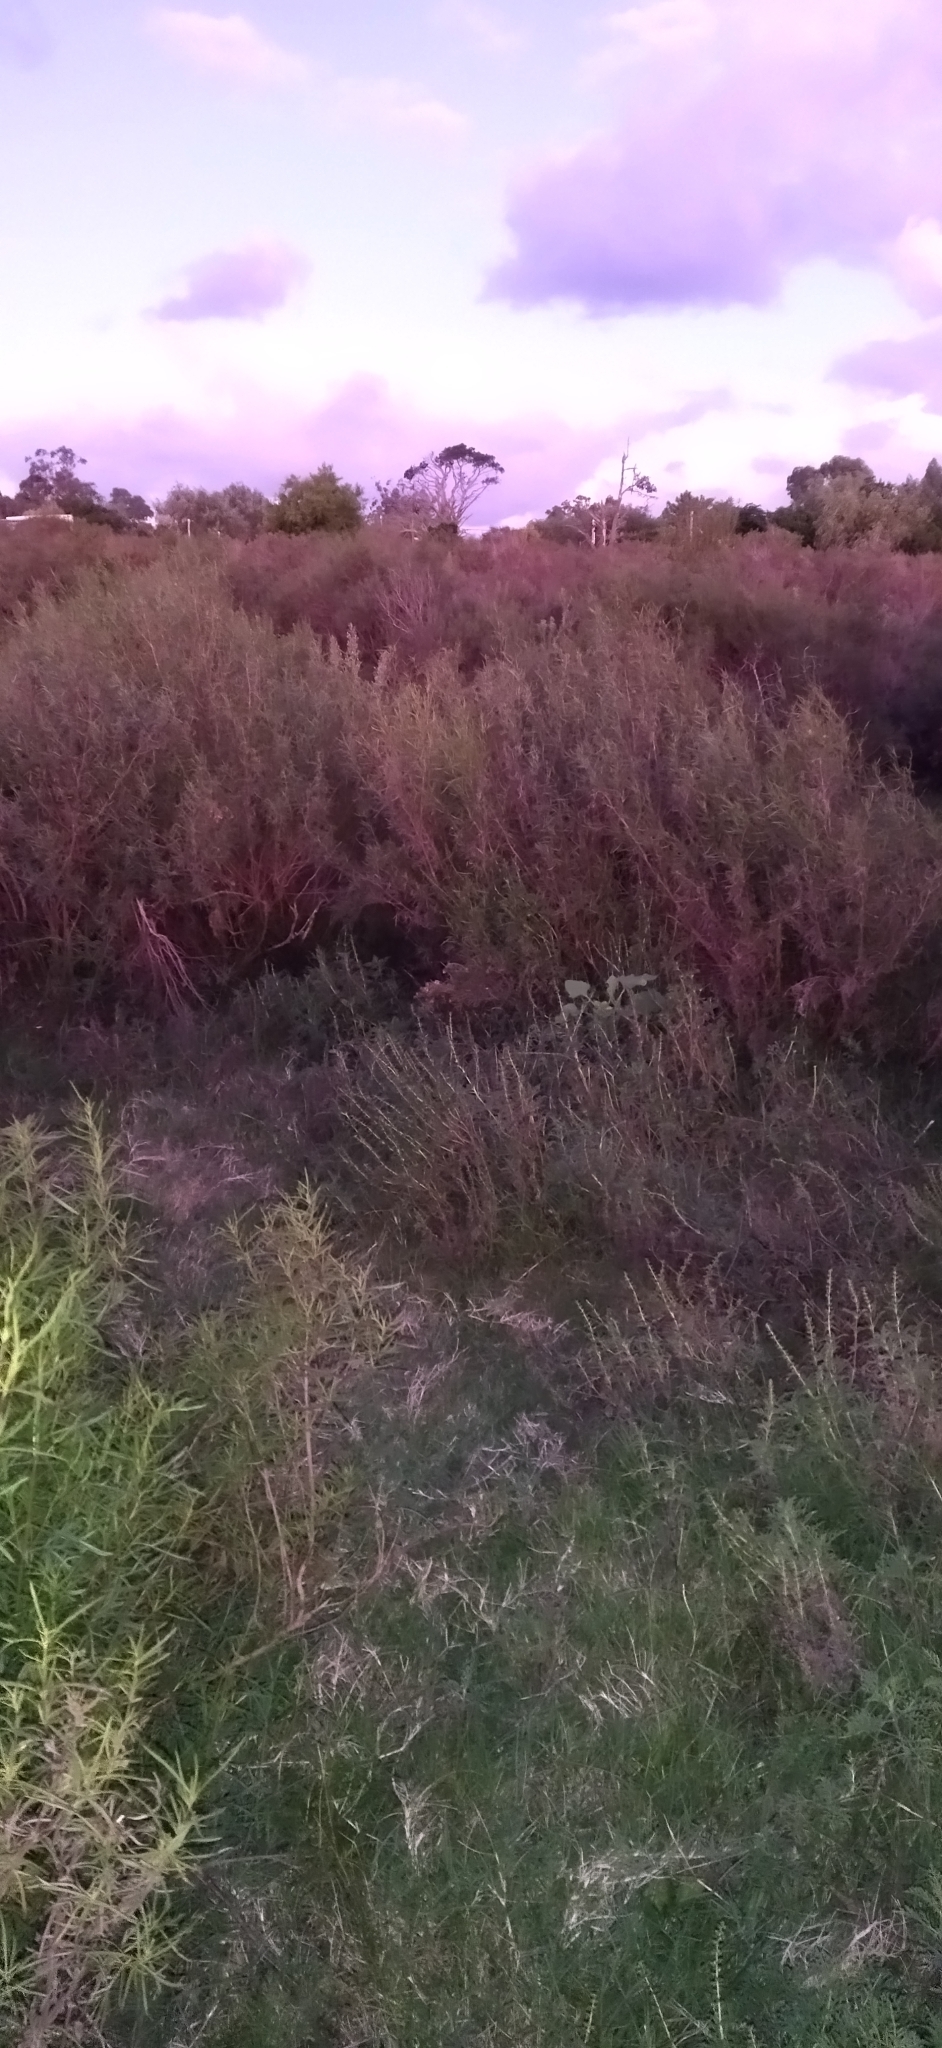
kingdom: Plantae
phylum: Tracheophyta
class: Magnoliopsida
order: Asterales
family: Asteraceae
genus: Acanthostyles
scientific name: Acanthostyles buniifolius
